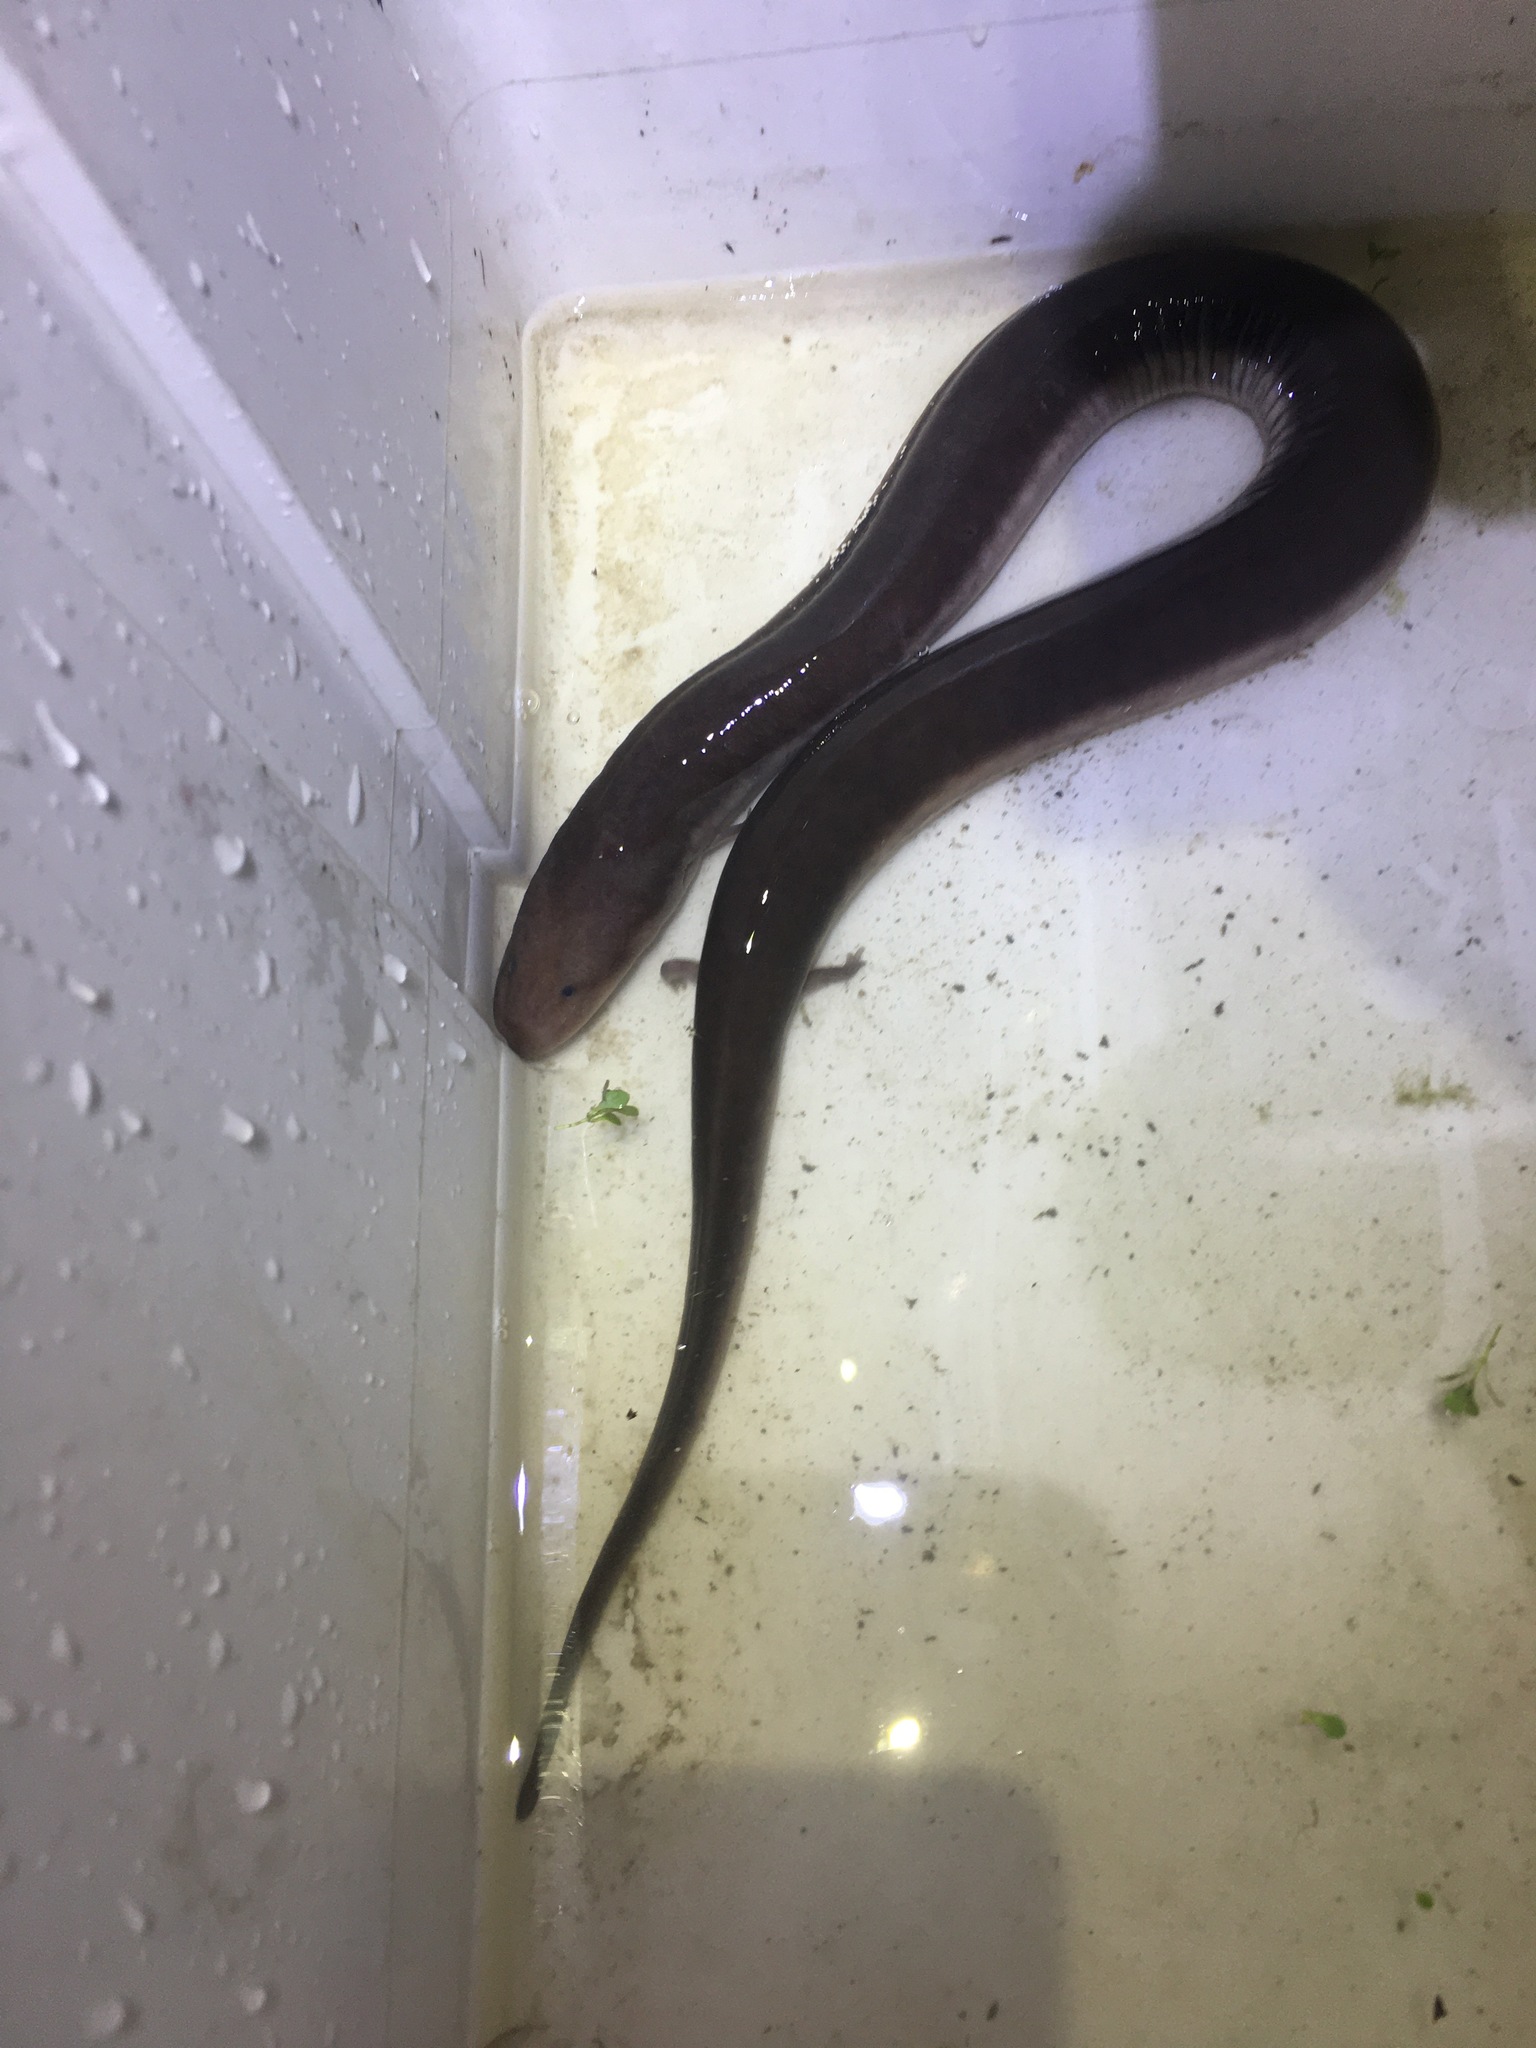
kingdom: Animalia
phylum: Chordata
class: Amphibia
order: Caudata
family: Amphiumidae
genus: Amphiuma
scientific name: Amphiuma tridactylum
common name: Three-toed amphiuma
